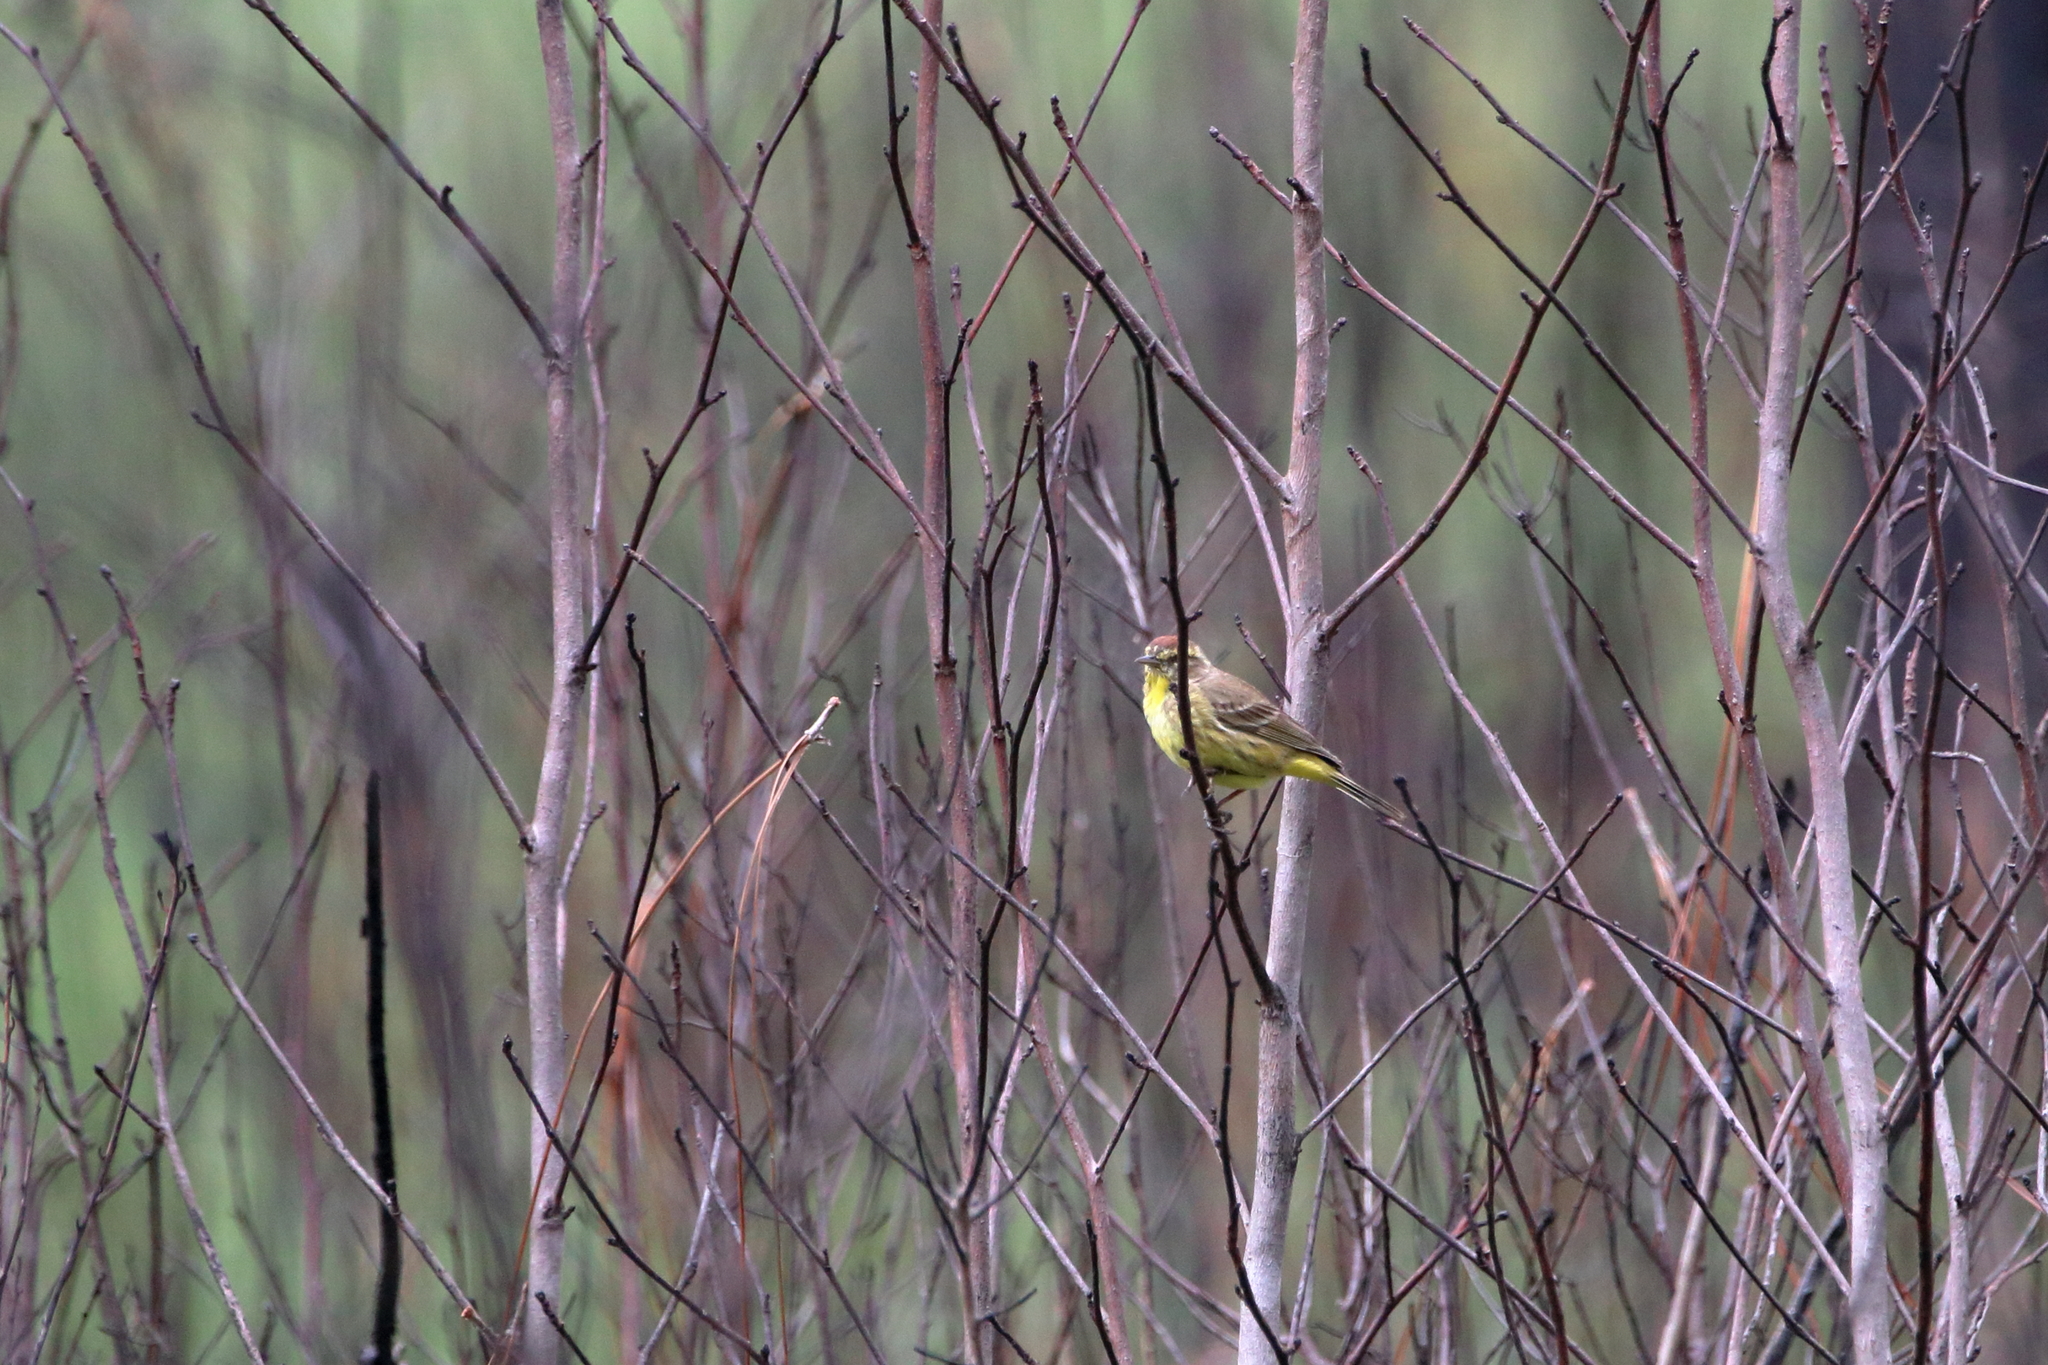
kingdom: Animalia
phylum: Chordata
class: Aves
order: Passeriformes
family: Parulidae
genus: Setophaga
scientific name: Setophaga palmarum
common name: Palm warbler
